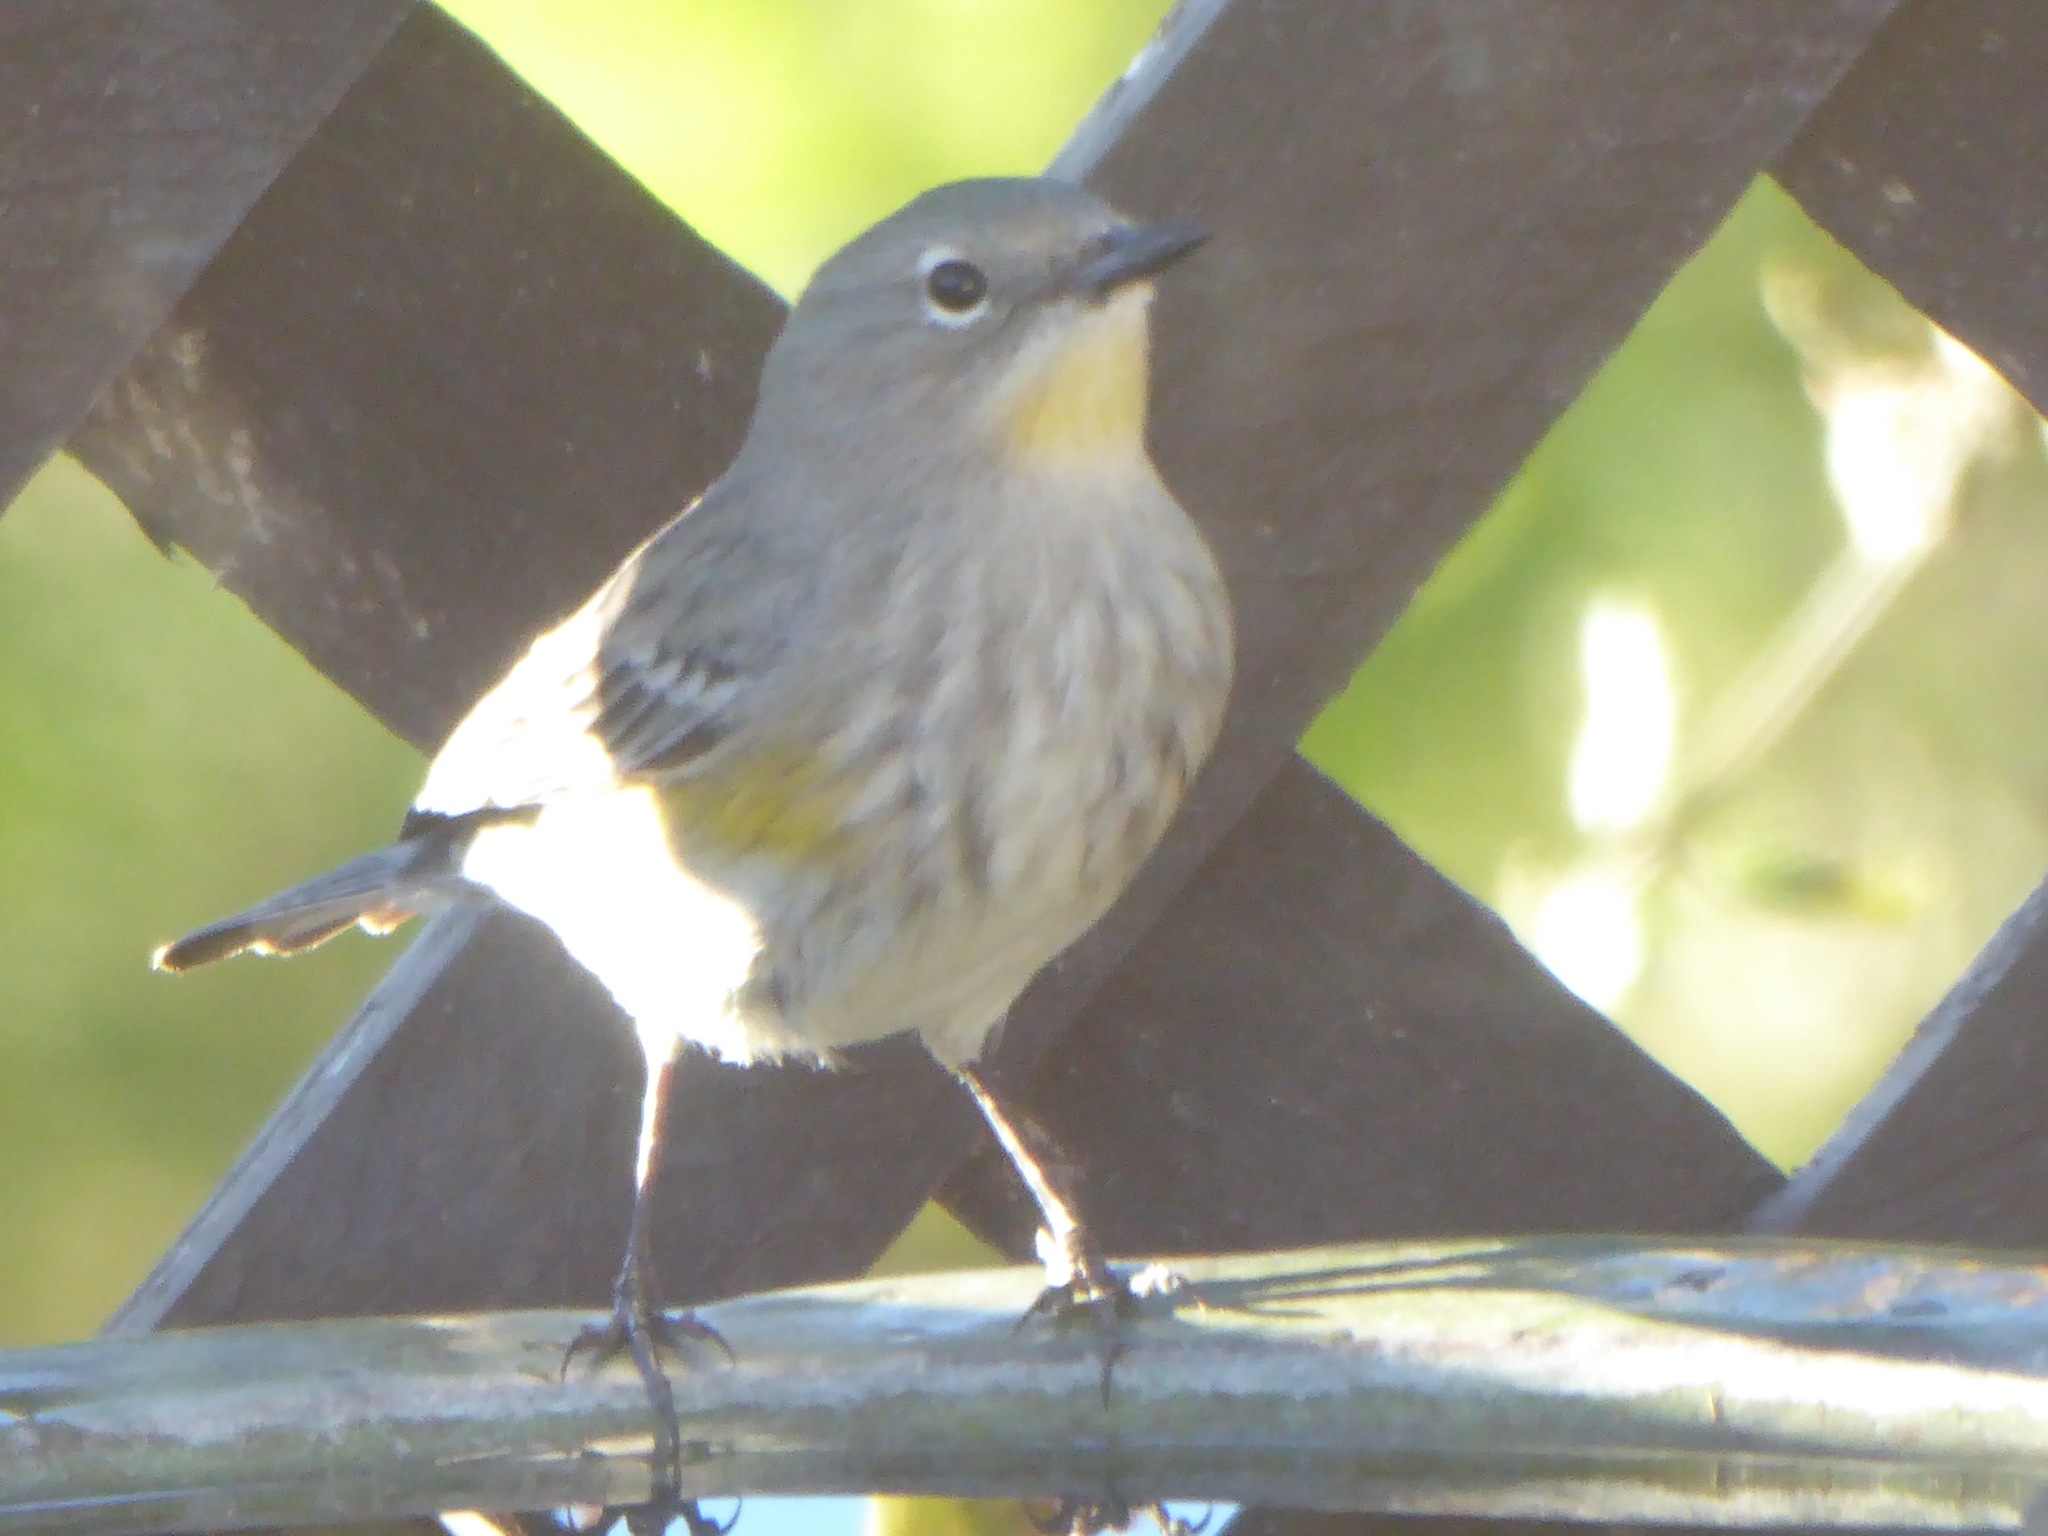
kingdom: Animalia
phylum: Chordata
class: Aves
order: Passeriformes
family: Parulidae
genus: Setophaga
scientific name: Setophaga coronata
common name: Myrtle warbler
